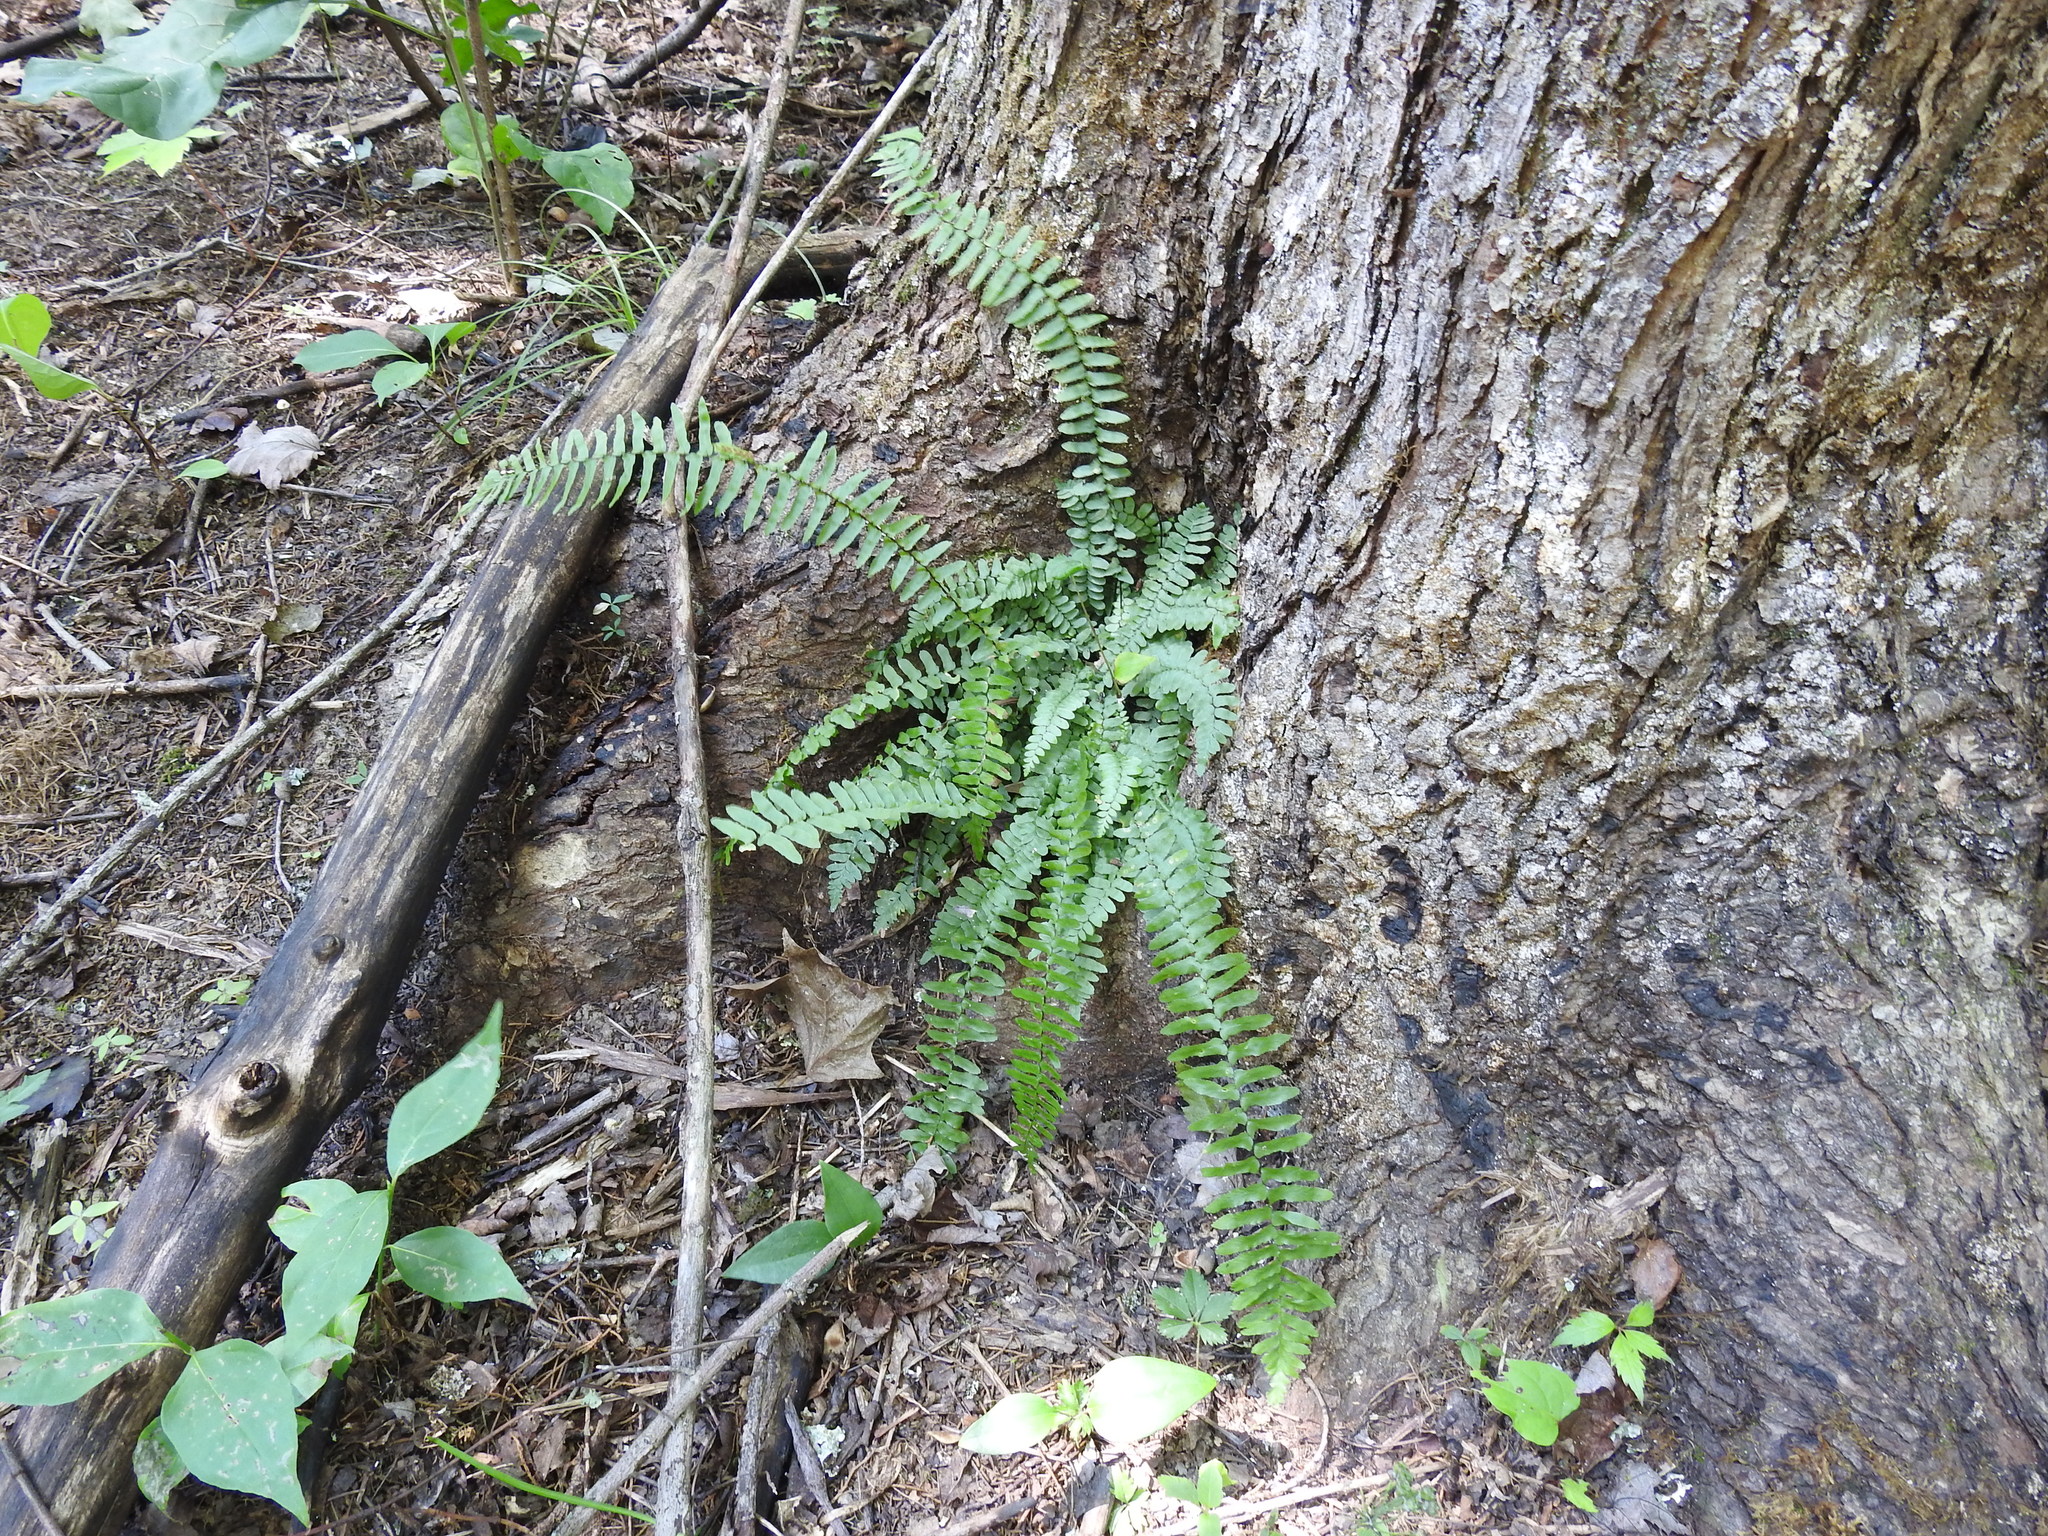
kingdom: Plantae
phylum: Tracheophyta
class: Polypodiopsida
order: Polypodiales
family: Aspleniaceae
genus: Asplenium
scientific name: Asplenium platyneuron
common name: Ebony spleenwort
